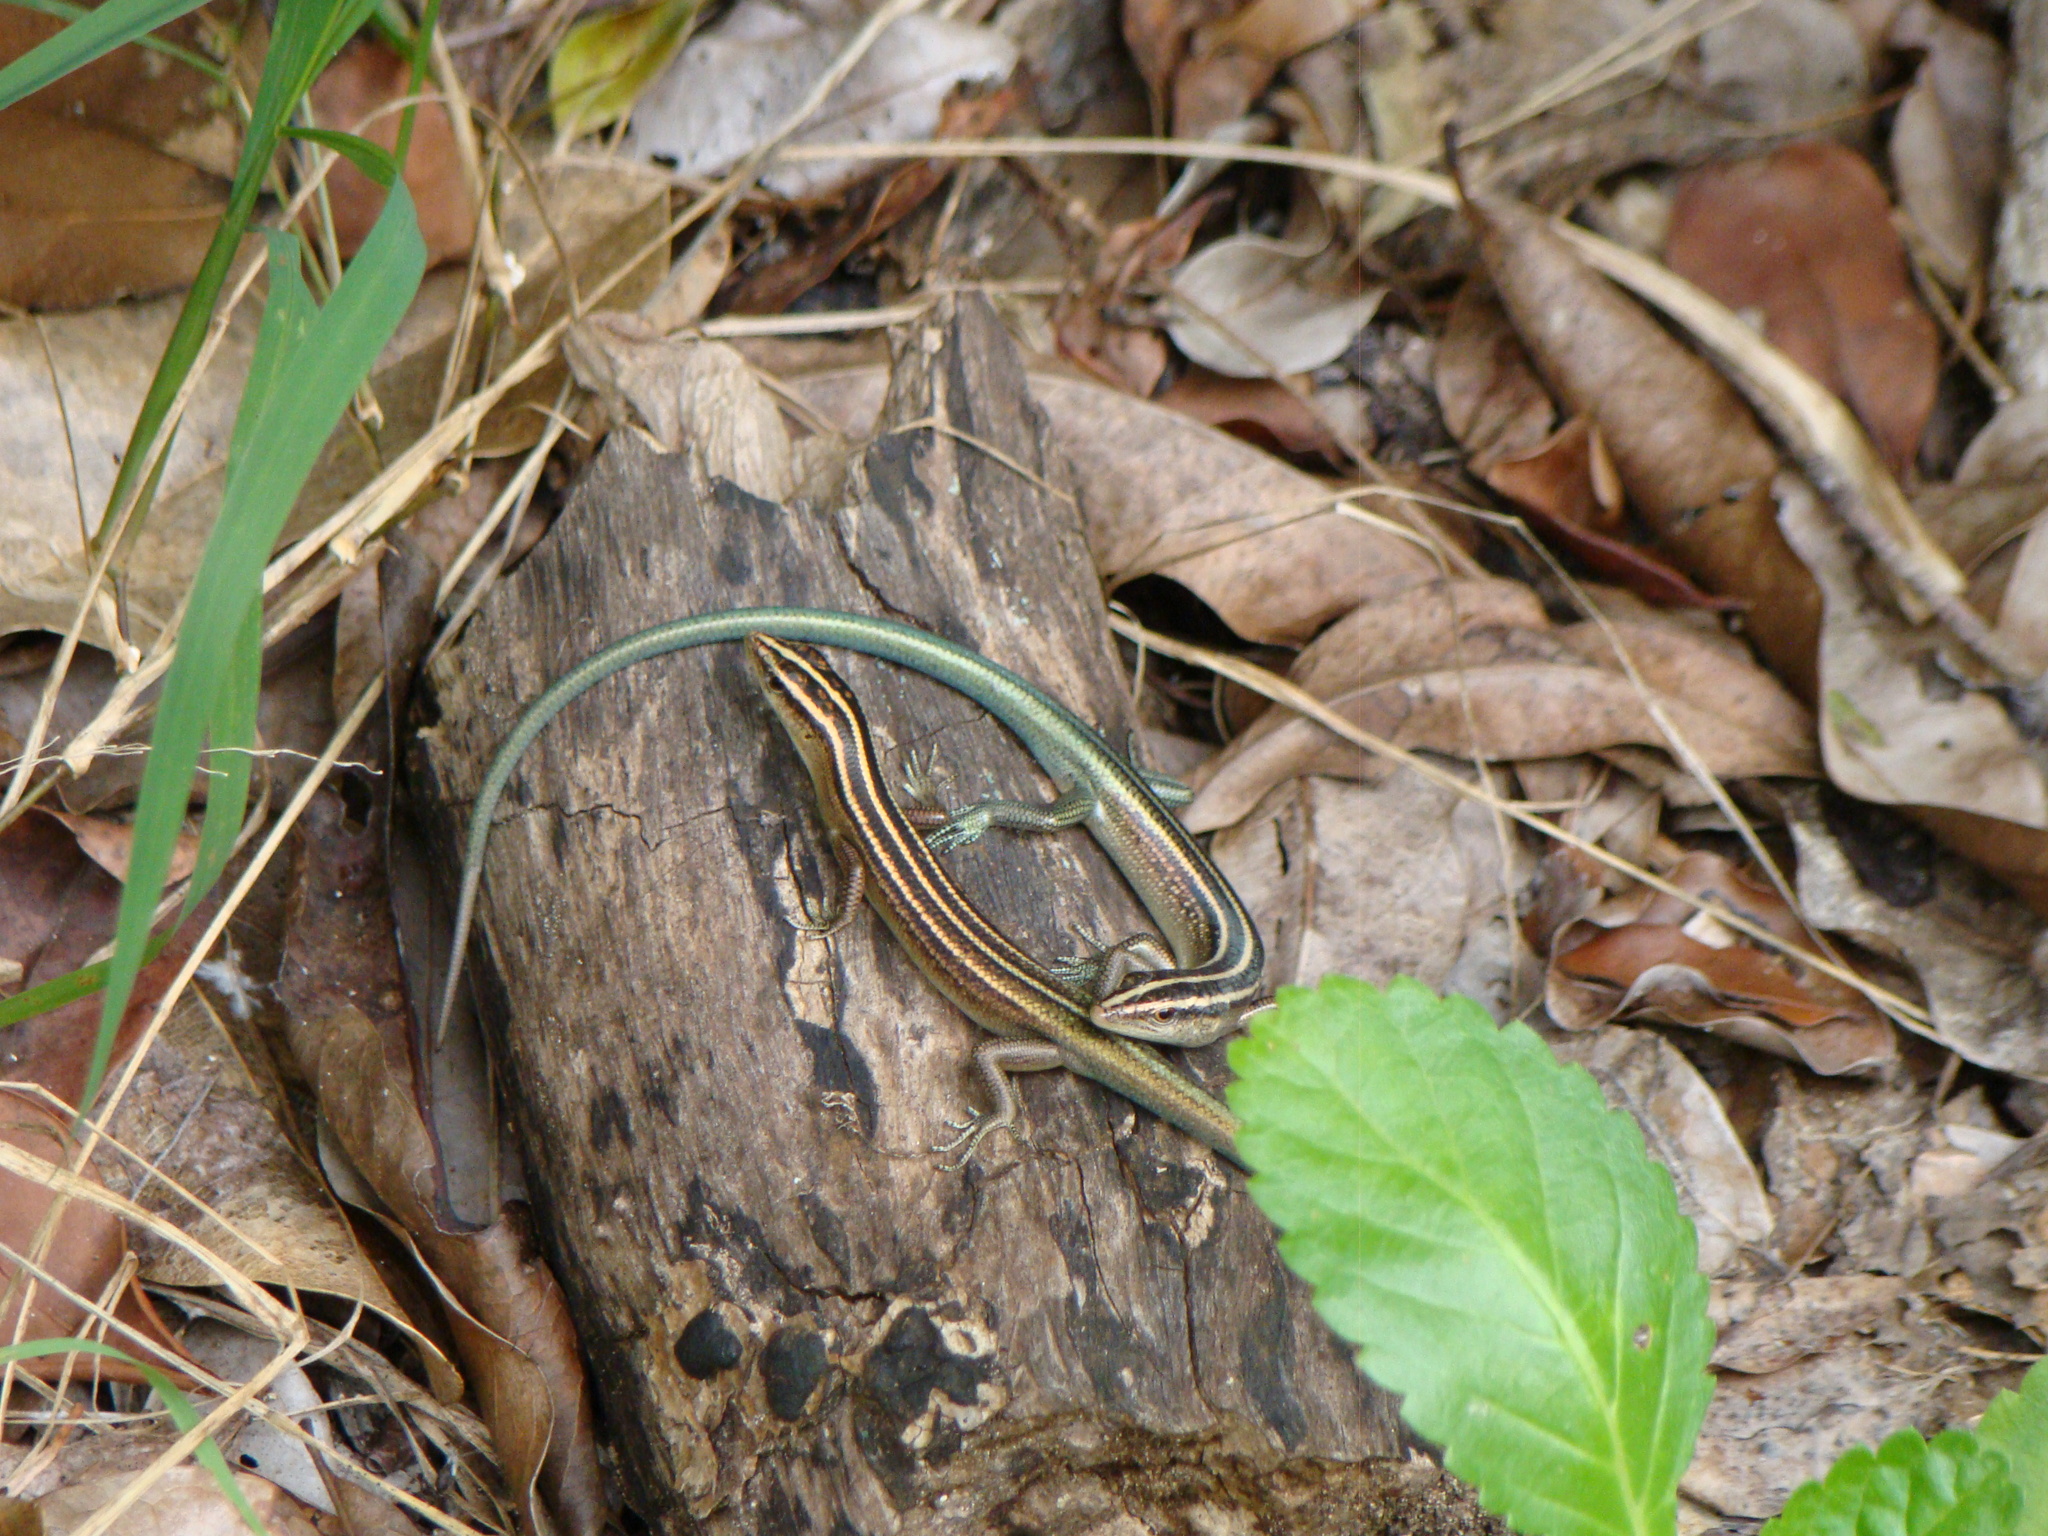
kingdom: Animalia
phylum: Chordata
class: Squamata
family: Scincidae
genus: Emoia
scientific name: Emoia cyanura
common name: Copper-tailed skink
